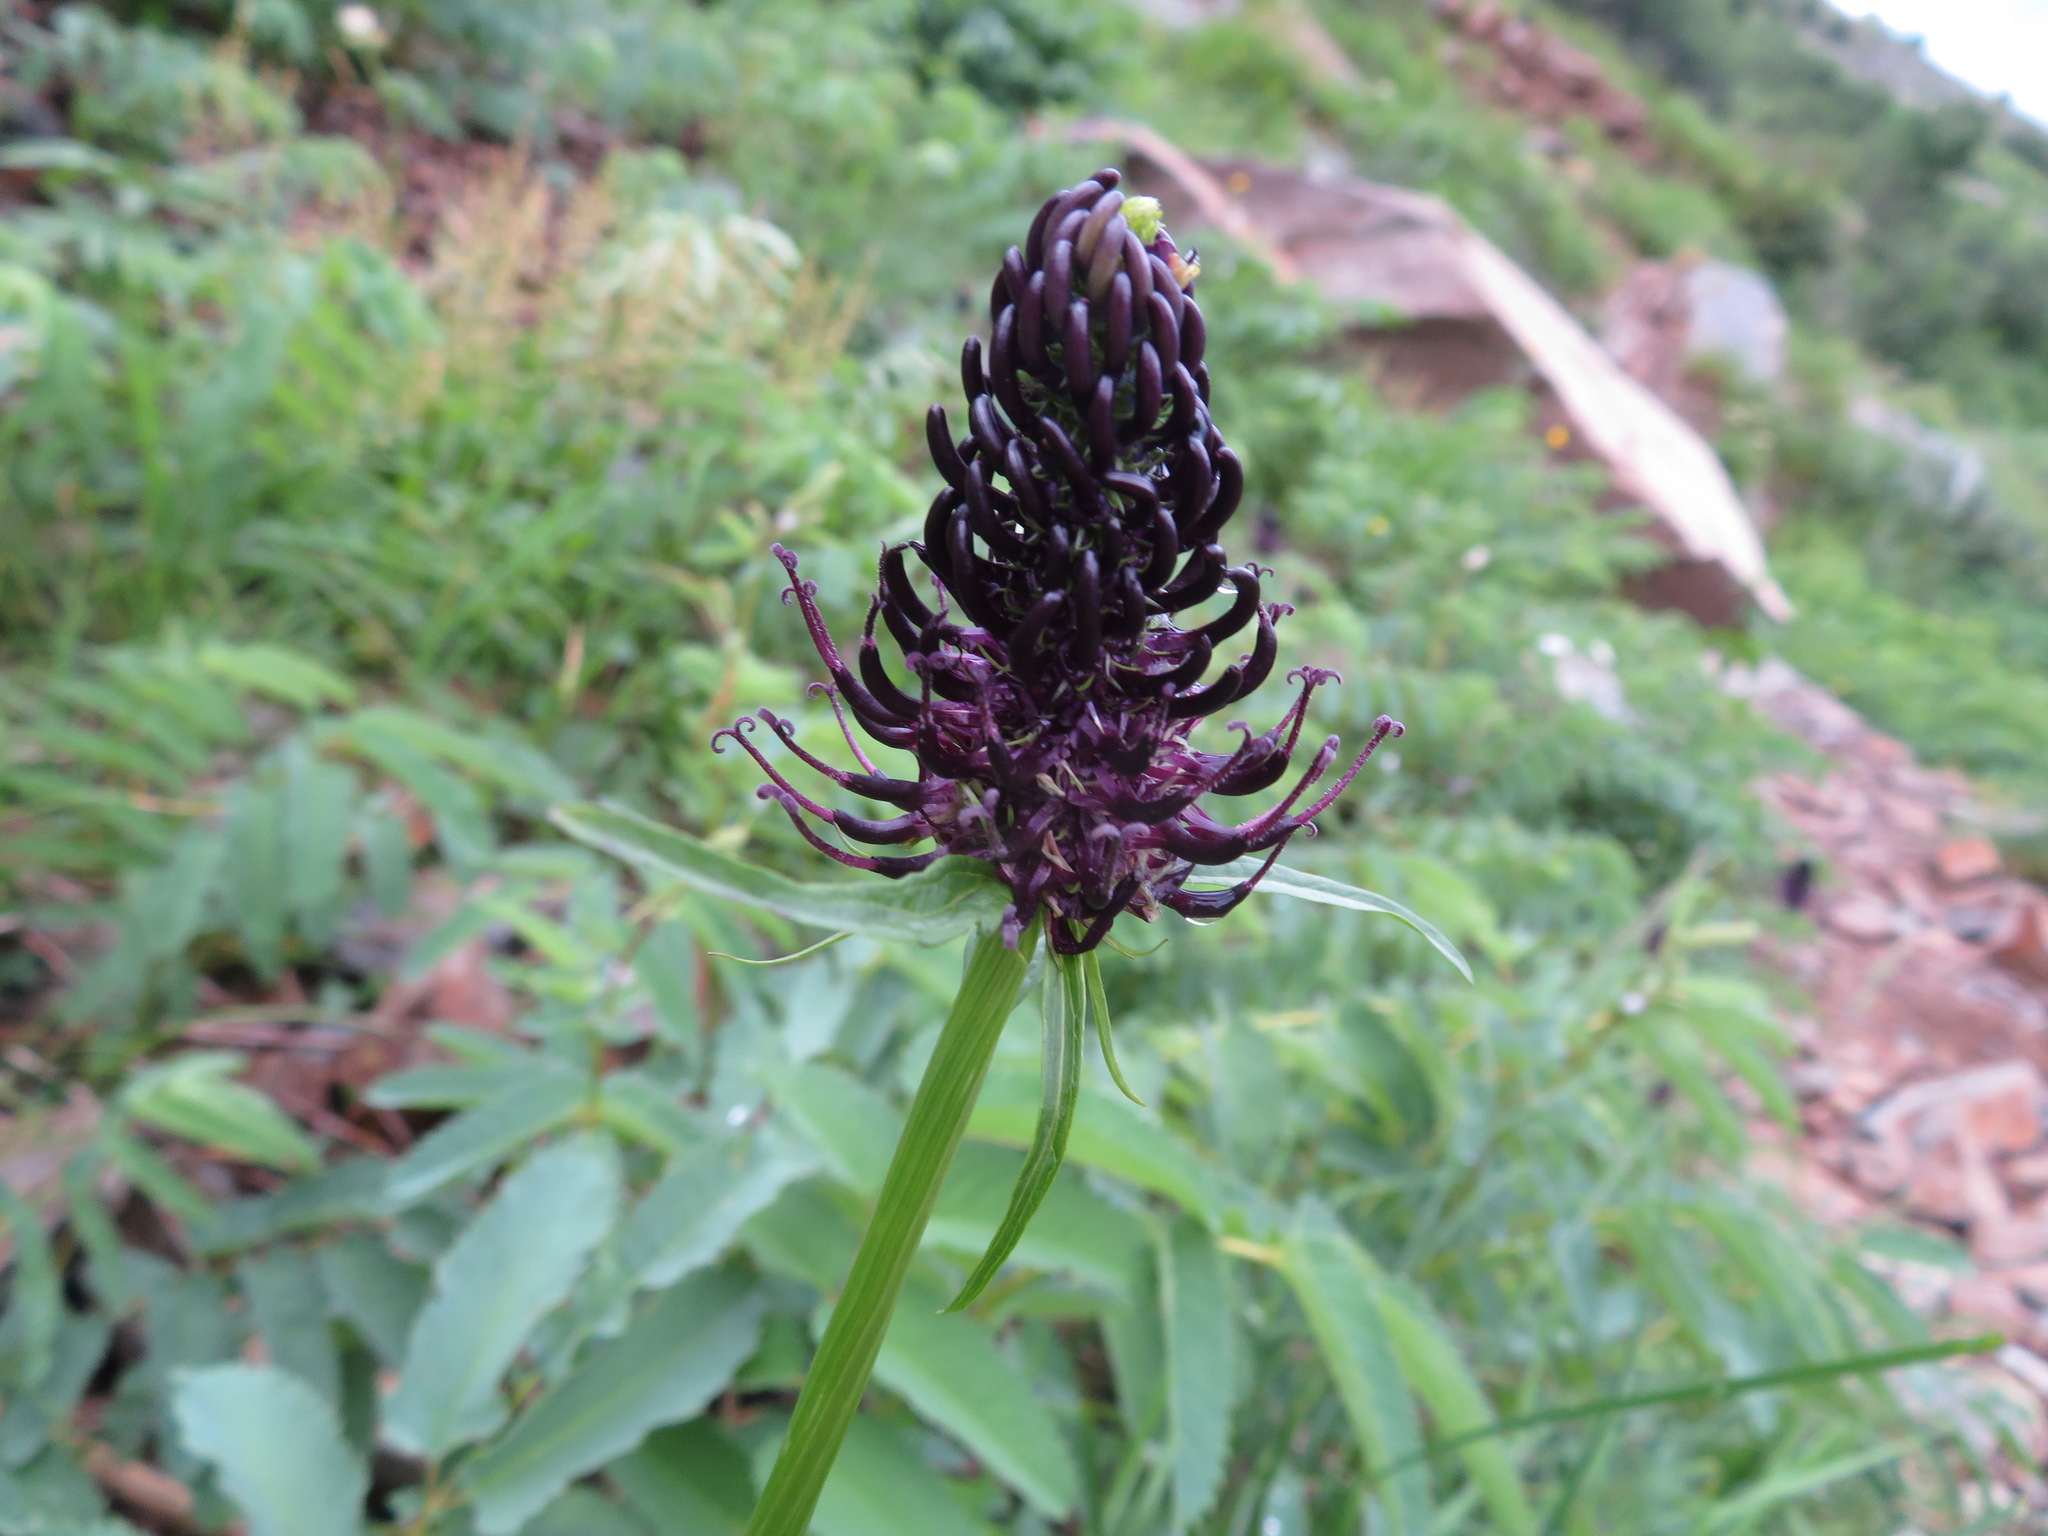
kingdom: Plantae
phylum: Tracheophyta
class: Magnoliopsida
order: Asterales
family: Campanulaceae
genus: Phyteuma
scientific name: Phyteuma ovatum
